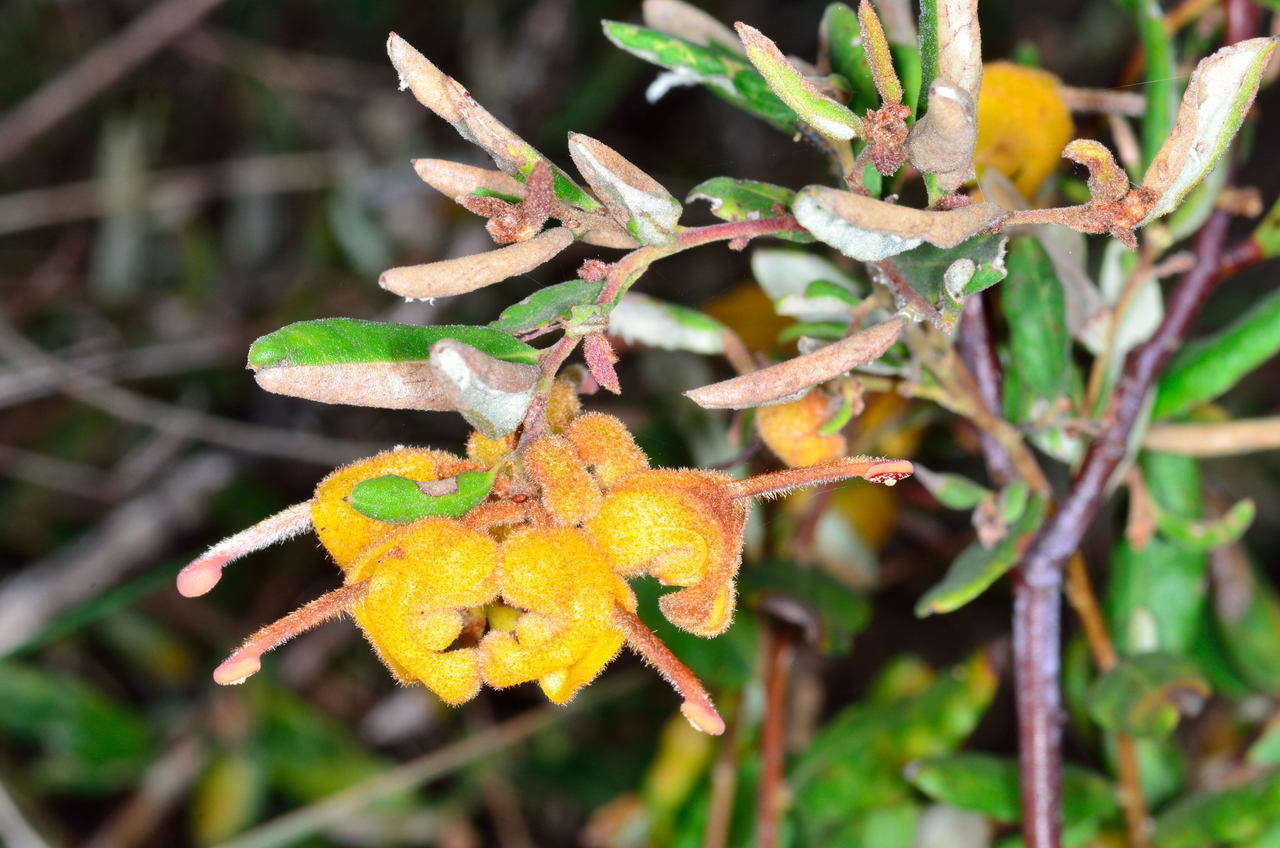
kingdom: Plantae
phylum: Tracheophyta
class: Magnoliopsida
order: Proteales
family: Proteaceae
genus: Grevillea
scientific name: Grevillea chrysophaea
